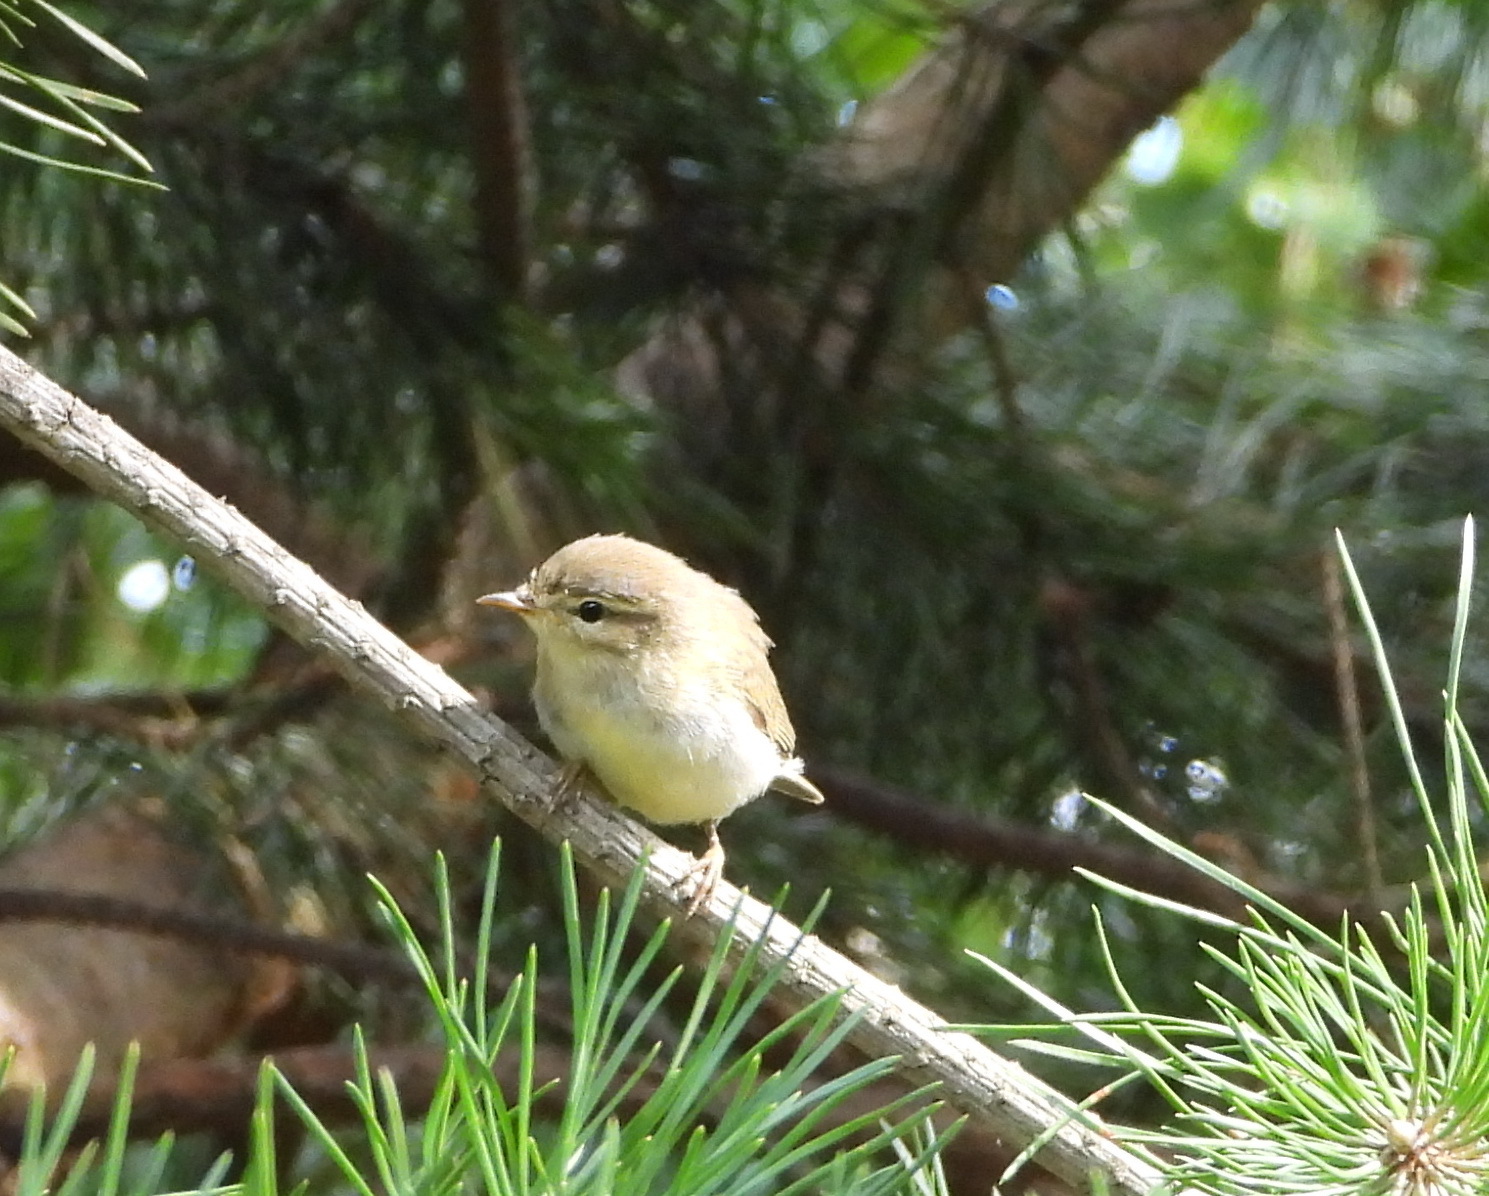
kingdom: Animalia
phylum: Chordata
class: Aves
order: Passeriformes
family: Phylloscopidae
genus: Phylloscopus
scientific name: Phylloscopus trochiloides
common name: Greenish warbler
